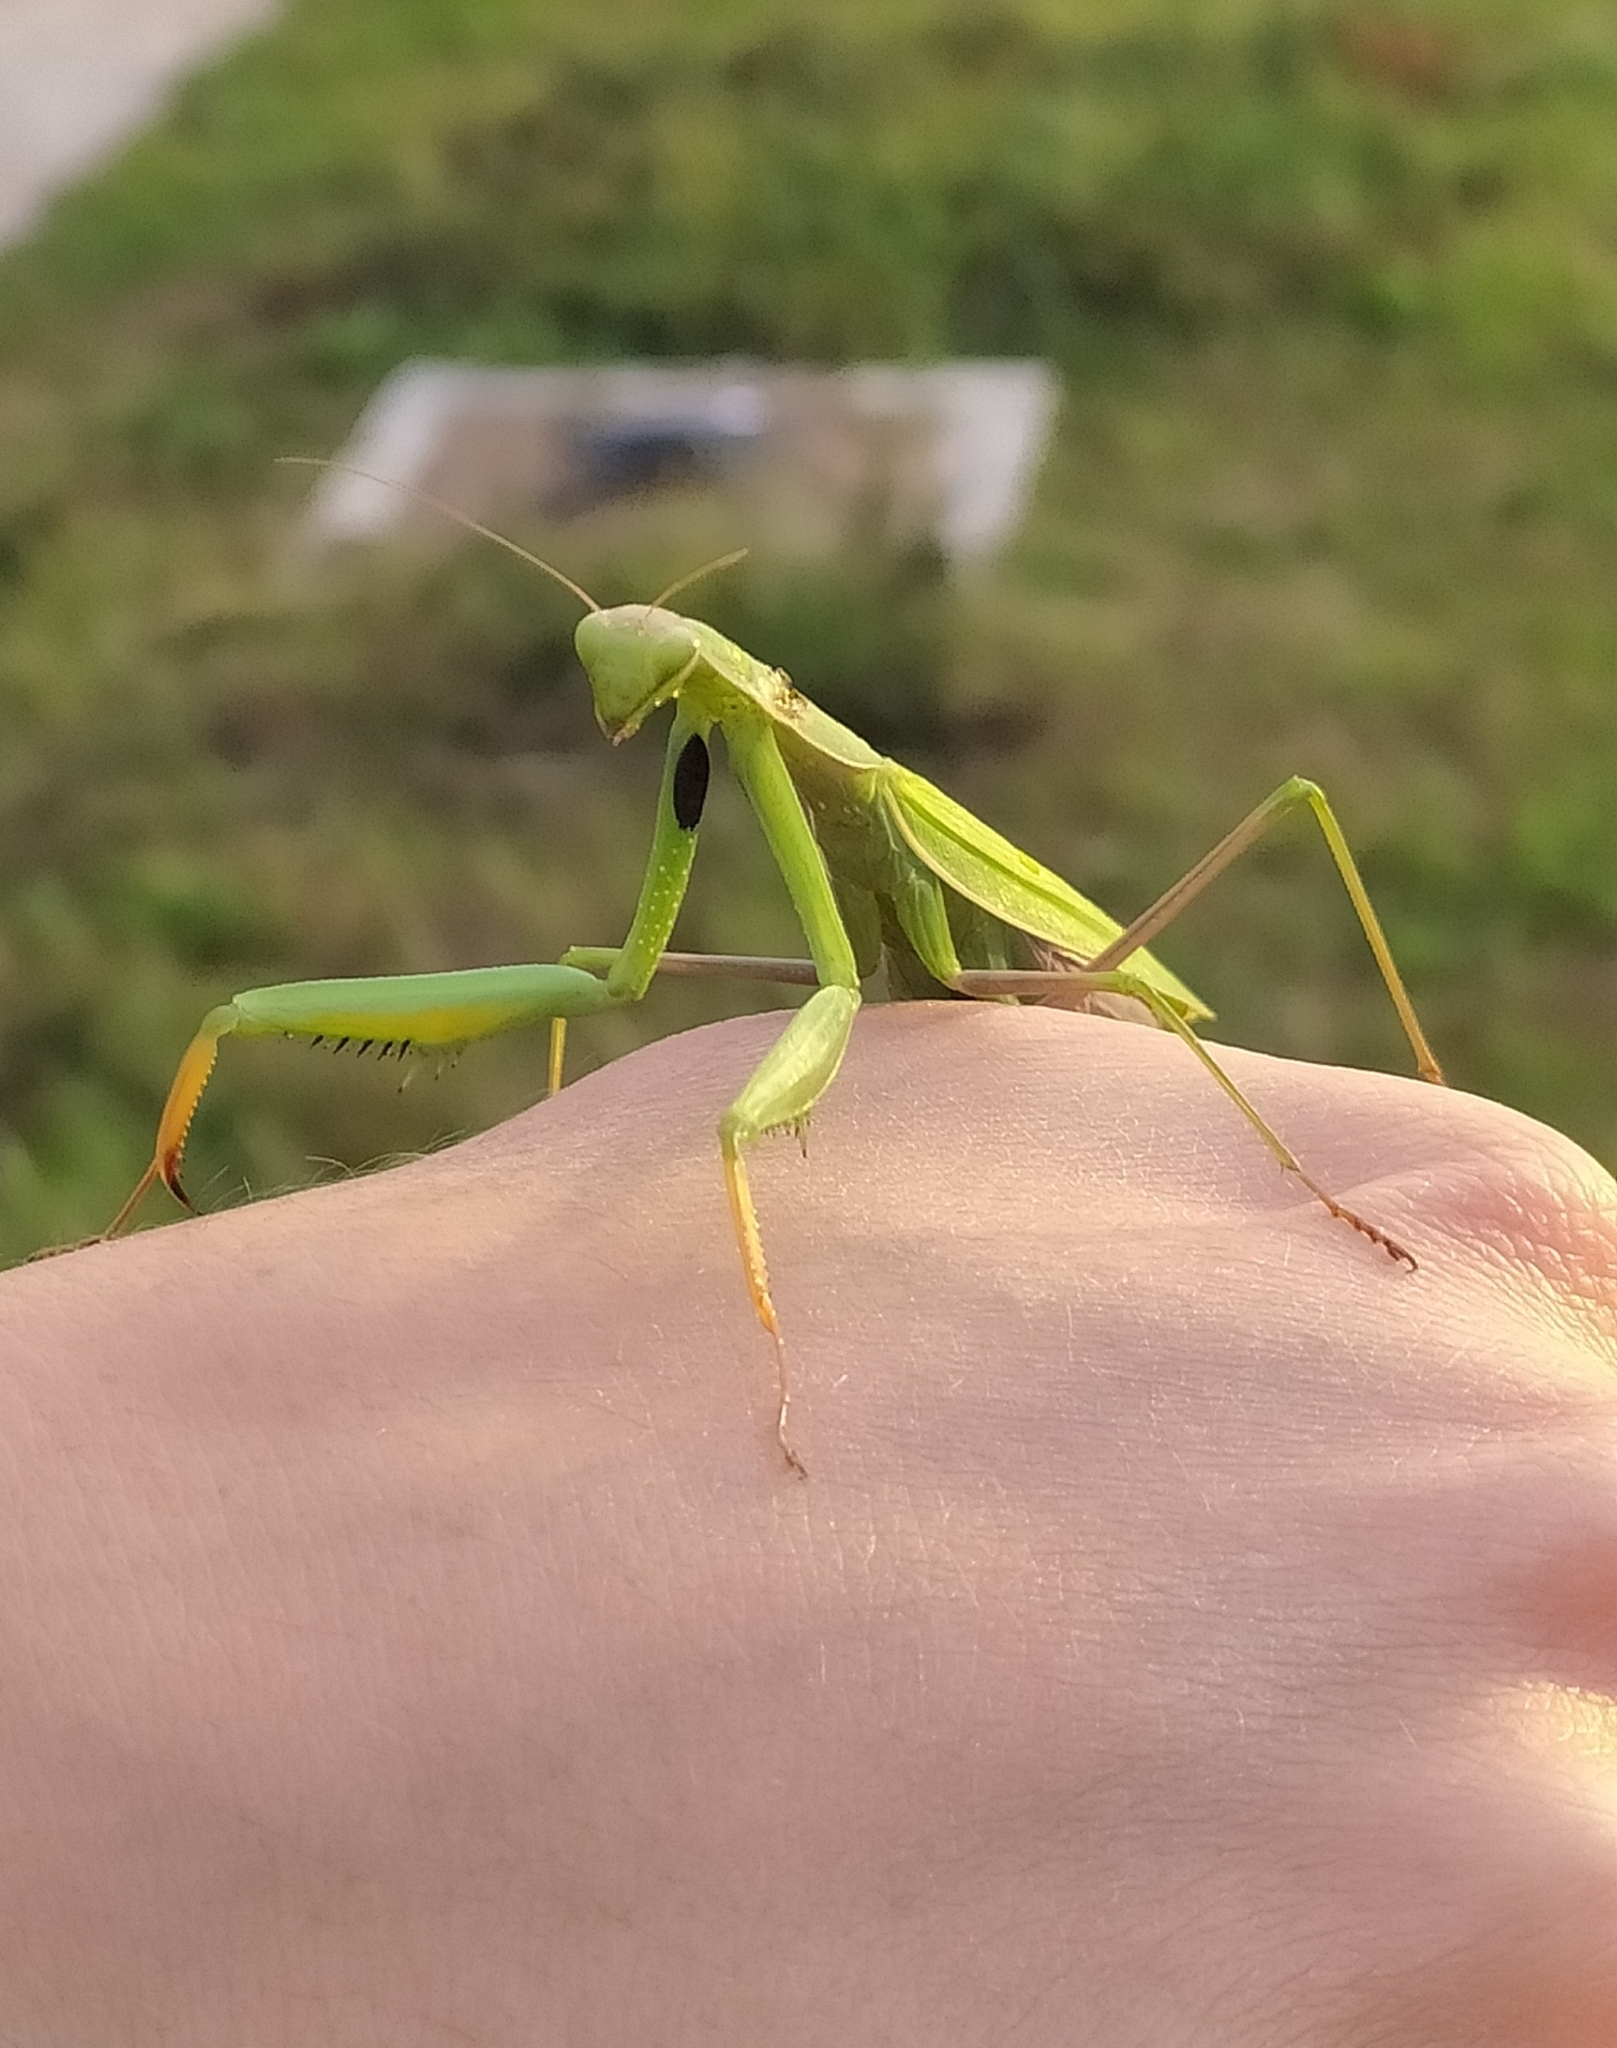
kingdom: Animalia
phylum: Arthropoda
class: Insecta
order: Mantodea
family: Mantidae
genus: Mantis
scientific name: Mantis religiosa
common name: Praying mantis
